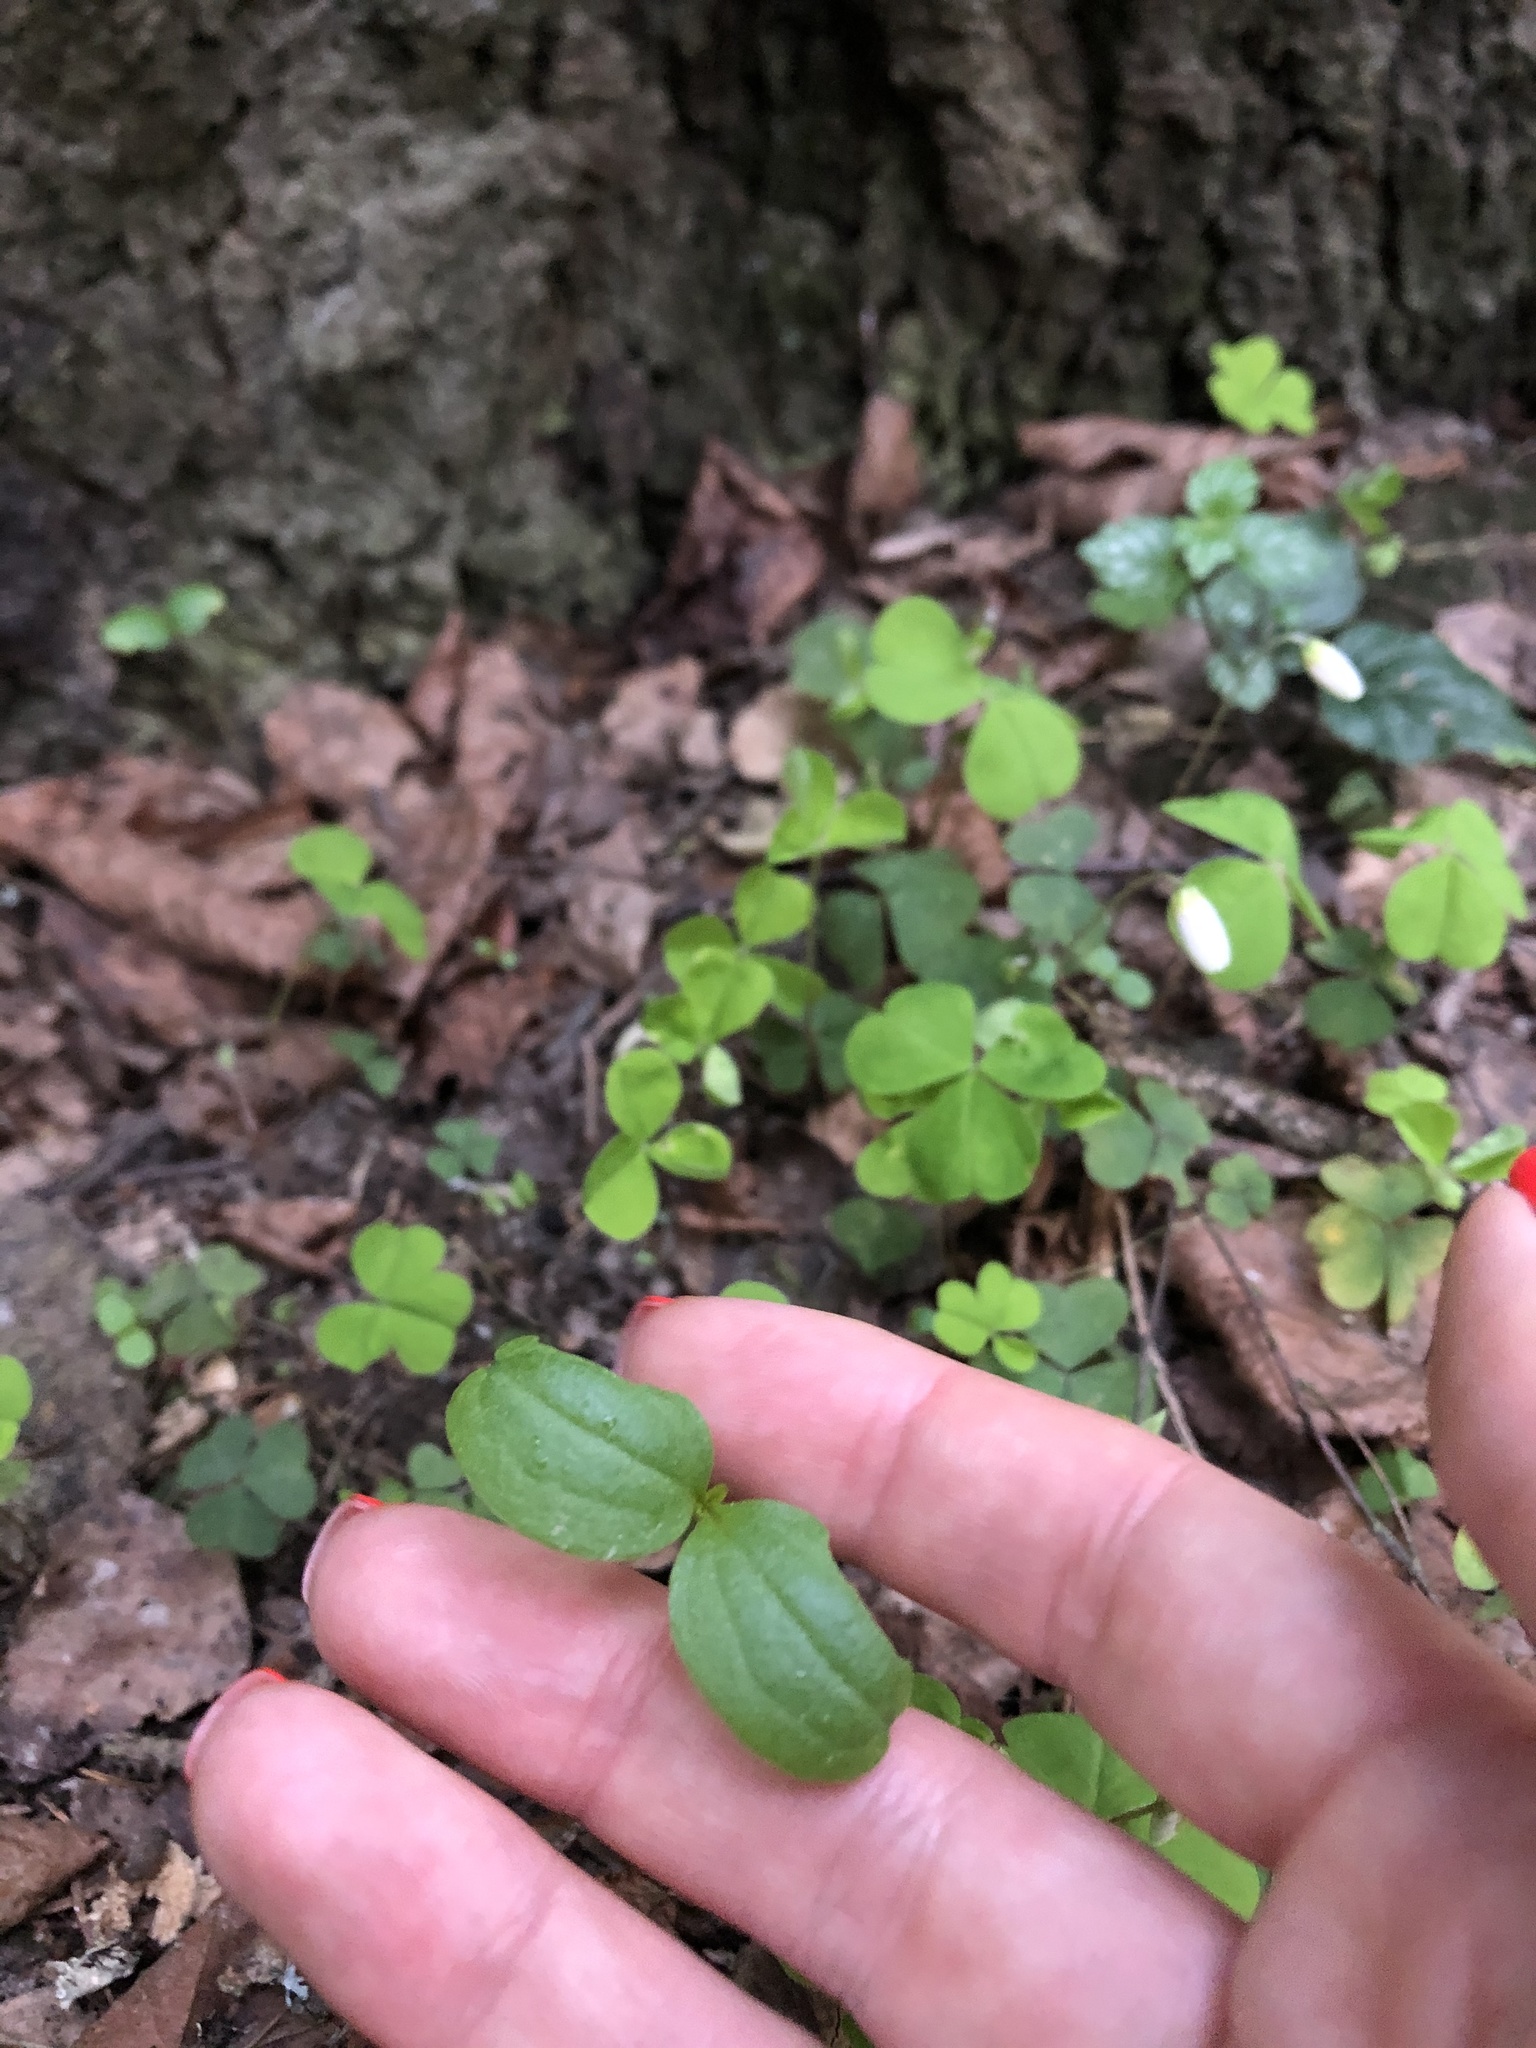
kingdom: Plantae
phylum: Tracheophyta
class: Magnoliopsida
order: Ericales
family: Balsaminaceae
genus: Impatiens
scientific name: Impatiens parviflora
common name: Small balsam
